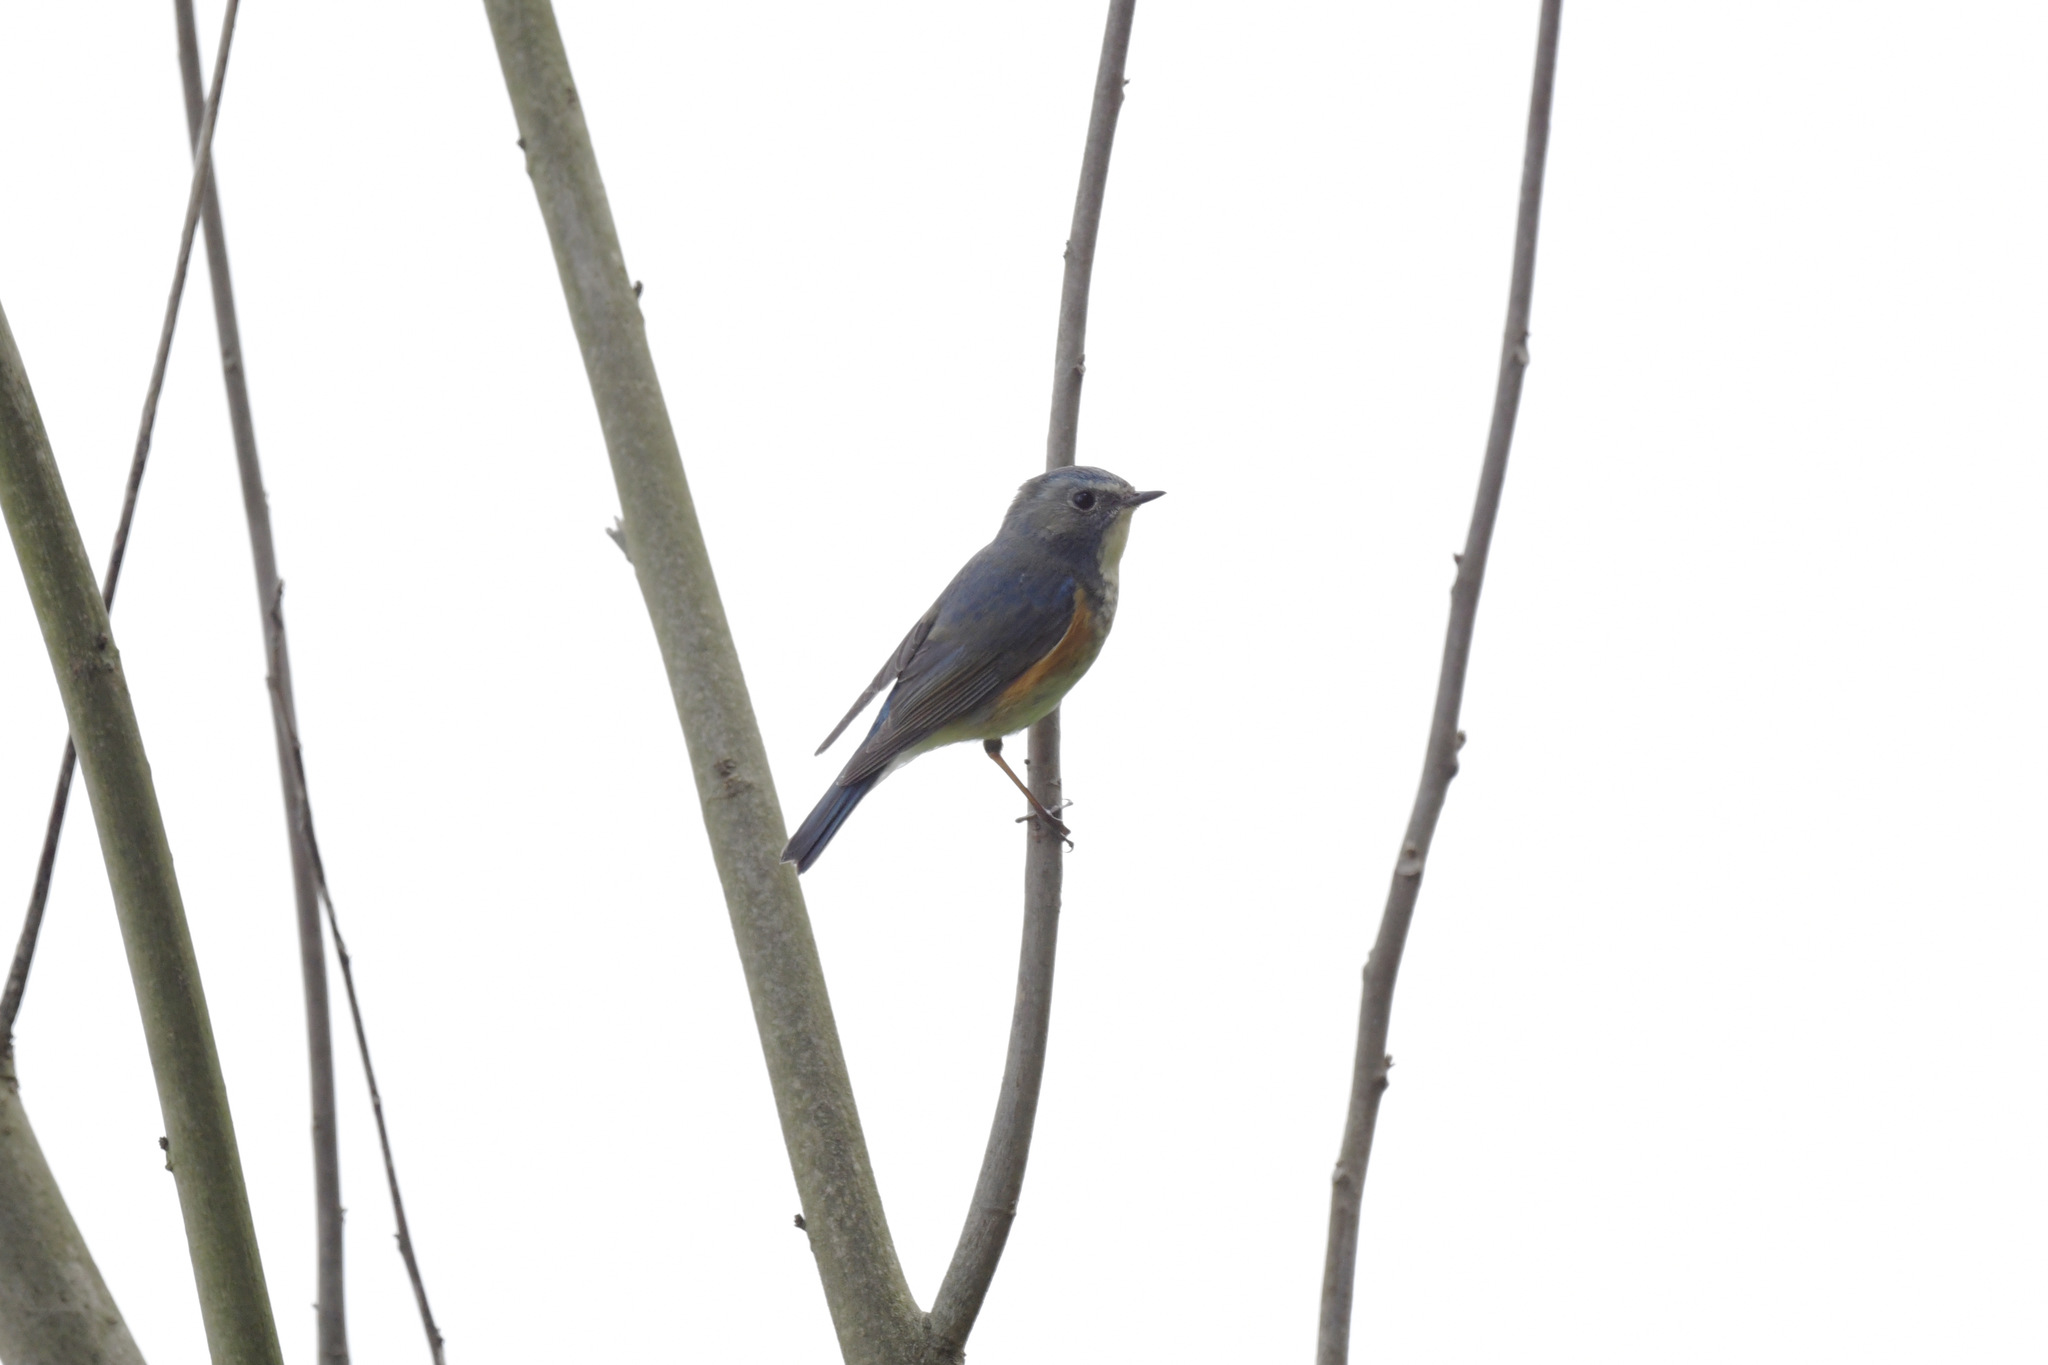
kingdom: Animalia
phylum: Chordata
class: Aves
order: Passeriformes
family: Muscicapidae
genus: Tarsiger
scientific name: Tarsiger cyanurus
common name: Red-flanked bluetail
